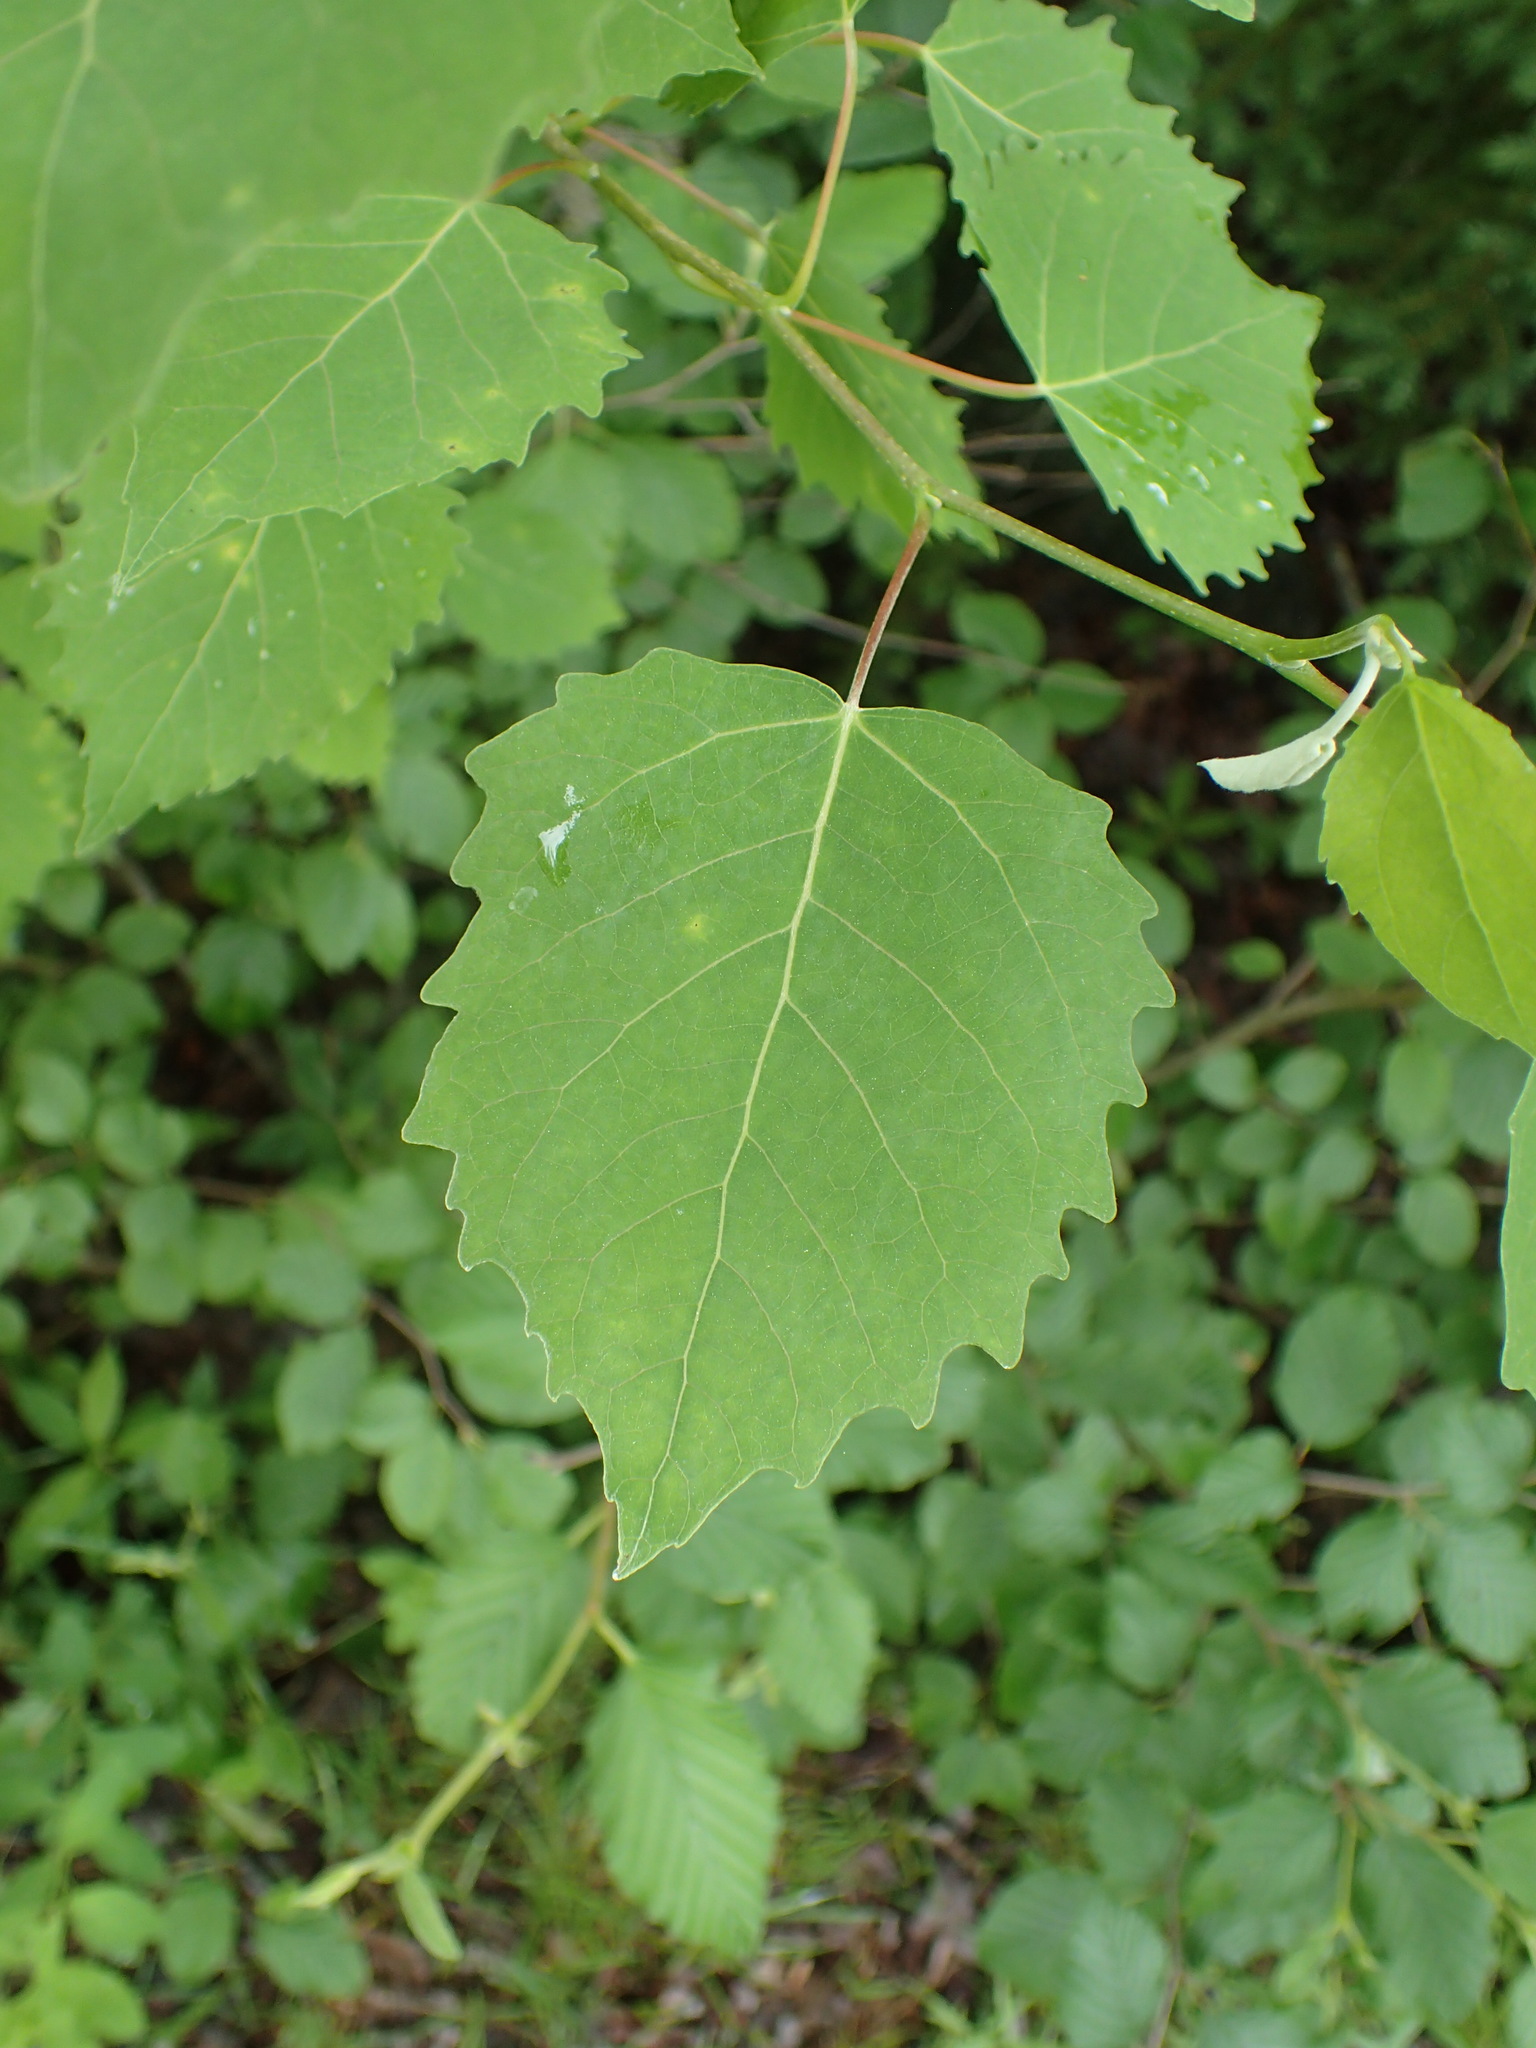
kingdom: Plantae
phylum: Tracheophyta
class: Magnoliopsida
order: Malpighiales
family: Salicaceae
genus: Populus
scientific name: Populus grandidentata
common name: Bigtooth aspen
